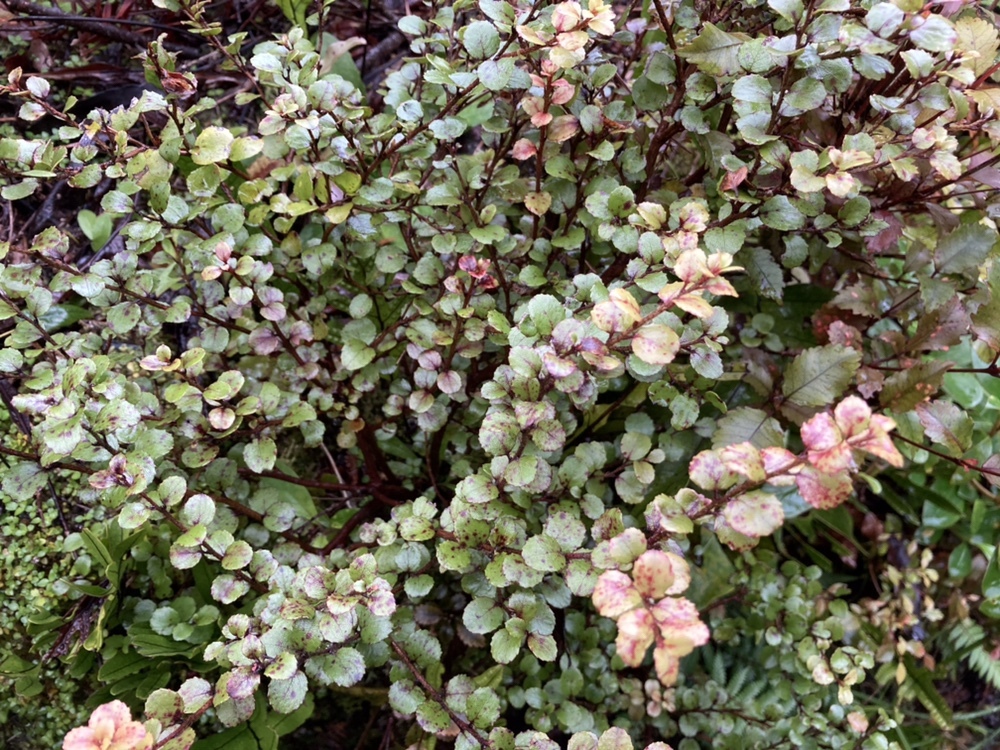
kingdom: Plantae
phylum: Tracheophyta
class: Magnoliopsida
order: Ericales
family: Ericaceae
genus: Gaultheria
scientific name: Gaultheria antipoda
